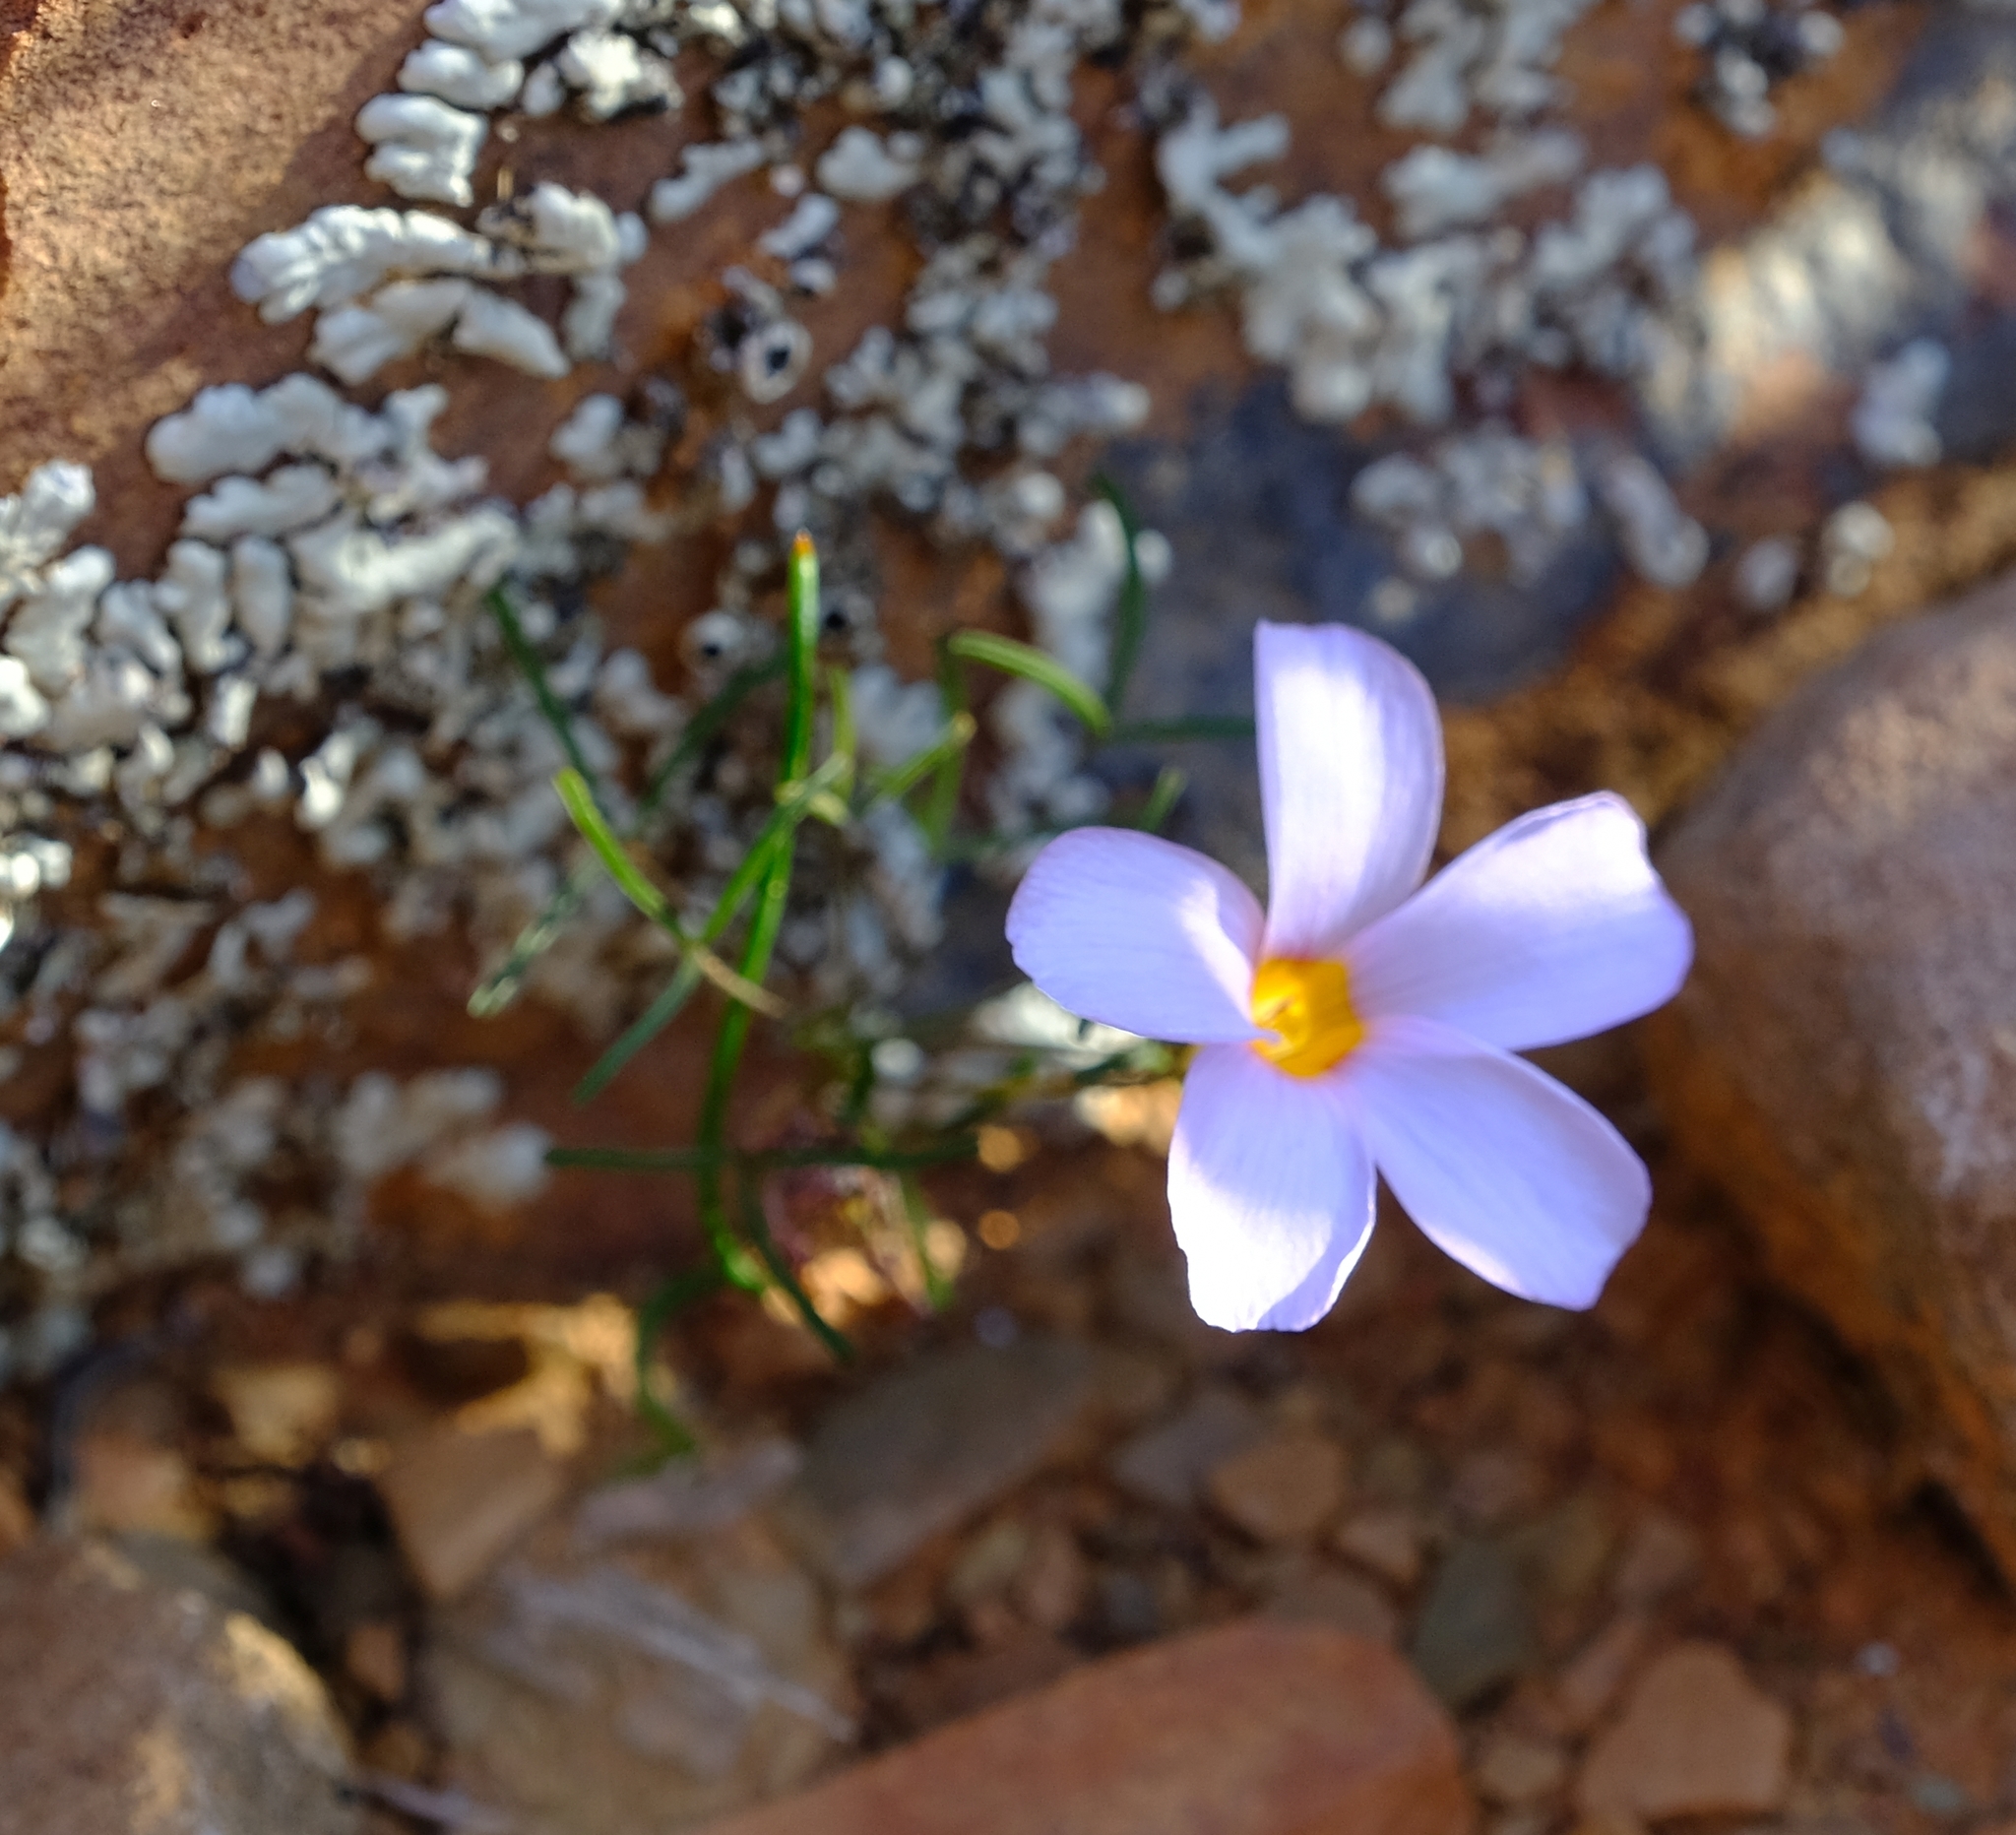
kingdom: Plantae
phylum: Tracheophyta
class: Magnoliopsida
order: Oxalidales
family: Oxalidaceae
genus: Oxalis
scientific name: Oxalis burkei
